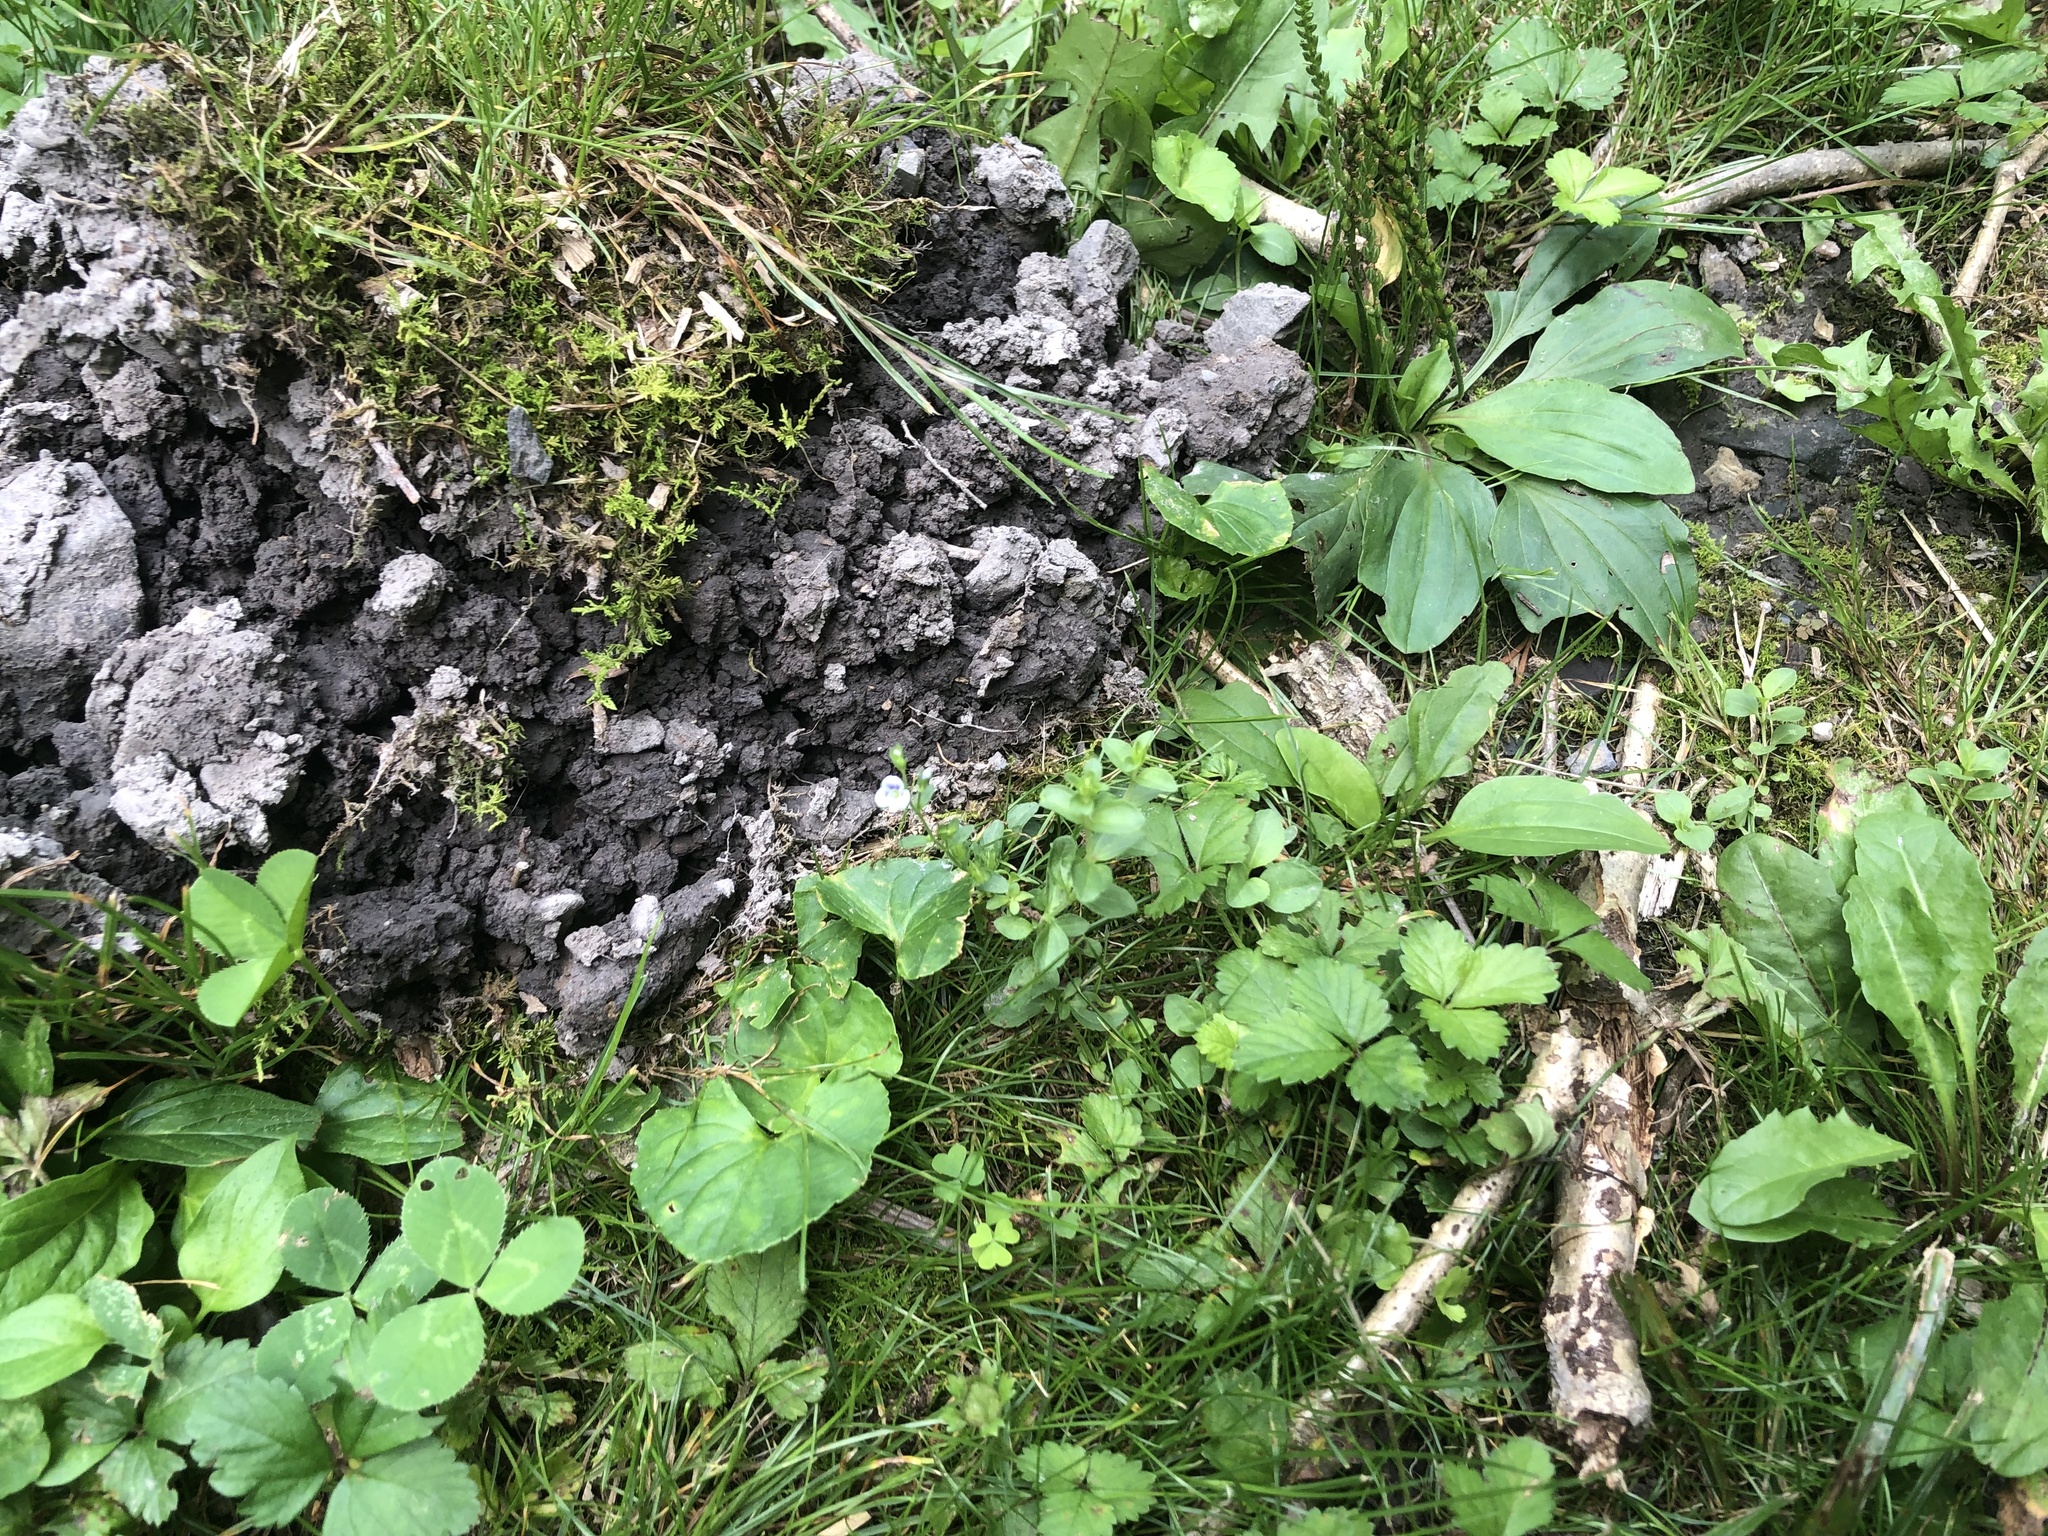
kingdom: Plantae
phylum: Tracheophyta
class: Magnoliopsida
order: Lamiales
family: Plantaginaceae
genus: Veronica
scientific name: Veronica serpyllifolia
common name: Thyme-leaved speedwell
